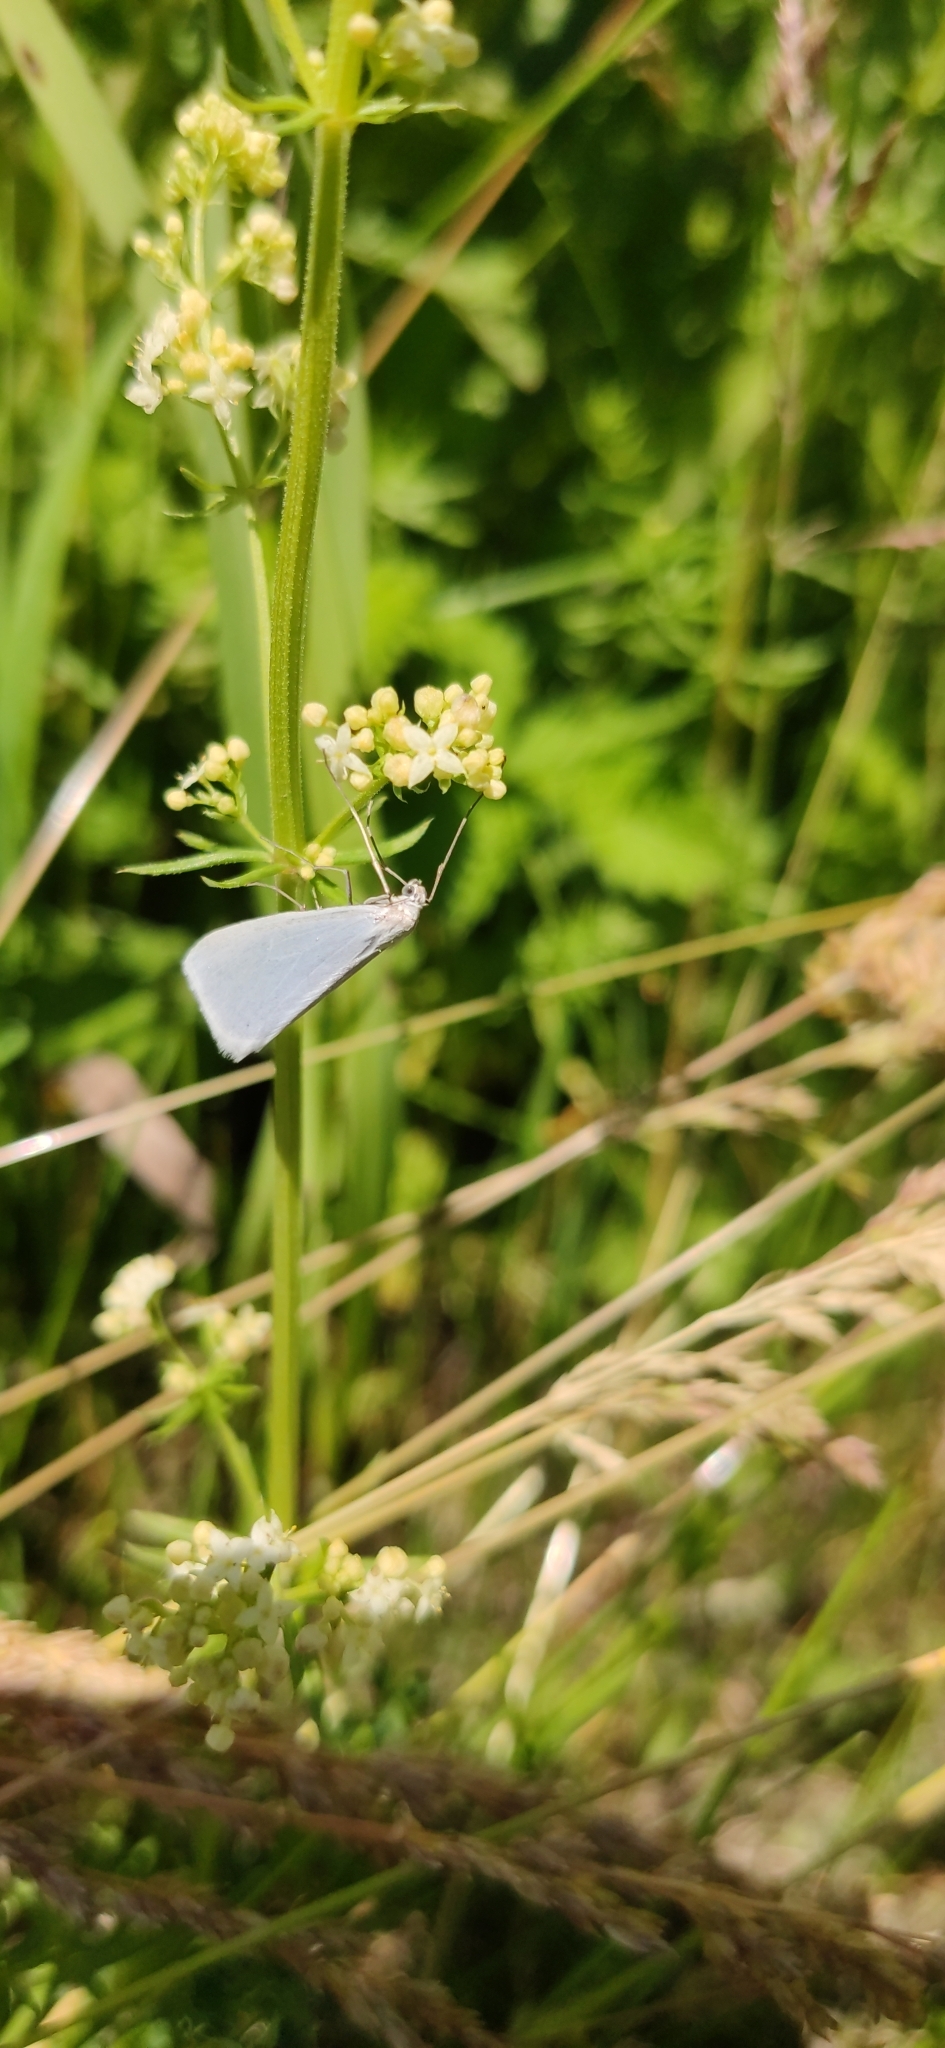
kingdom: Animalia
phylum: Arthropoda
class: Insecta
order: Lepidoptera
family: Geometridae
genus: Gypsochroa
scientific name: Gypsochroa renitidata
